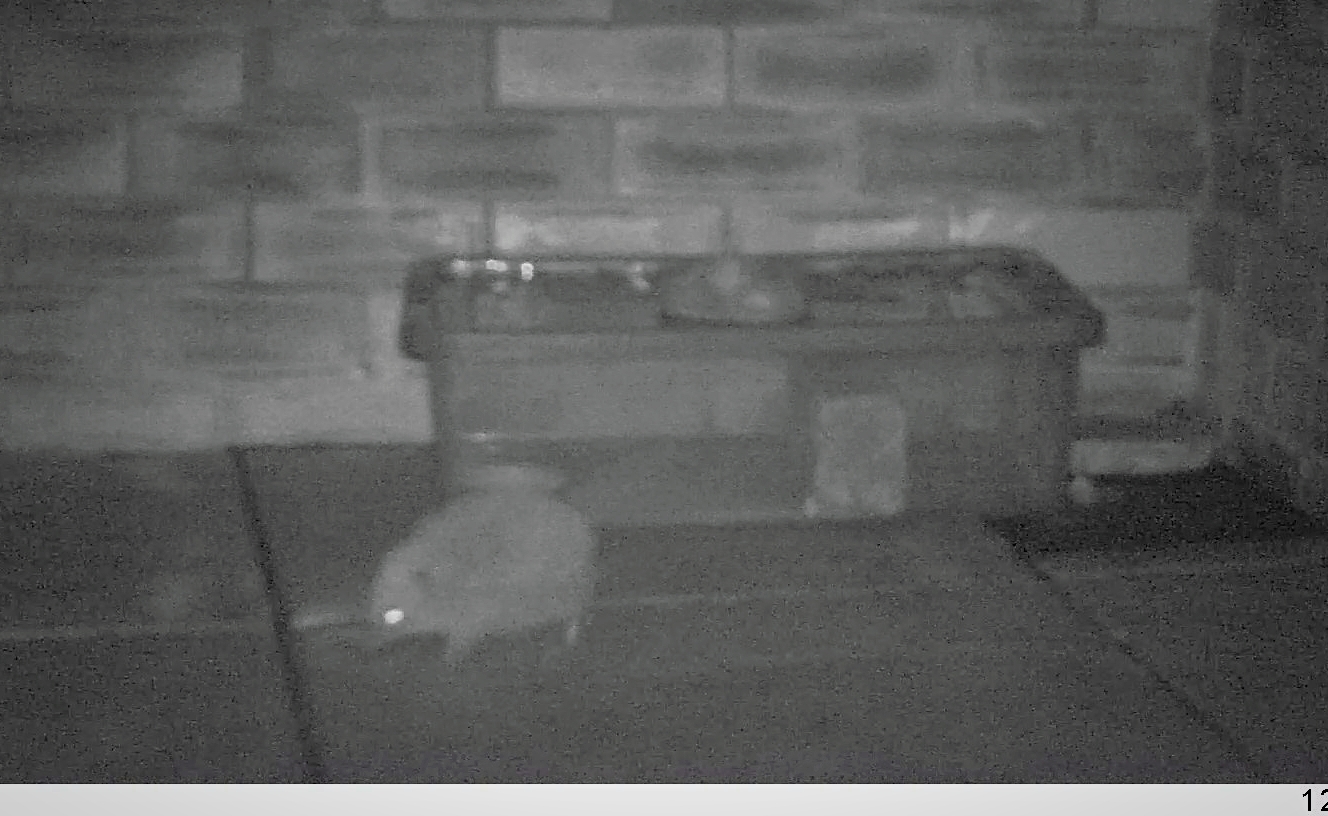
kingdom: Animalia
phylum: Chordata
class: Mammalia
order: Erinaceomorpha
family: Erinaceidae
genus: Erinaceus
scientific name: Erinaceus europaeus
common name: West european hedgehog
